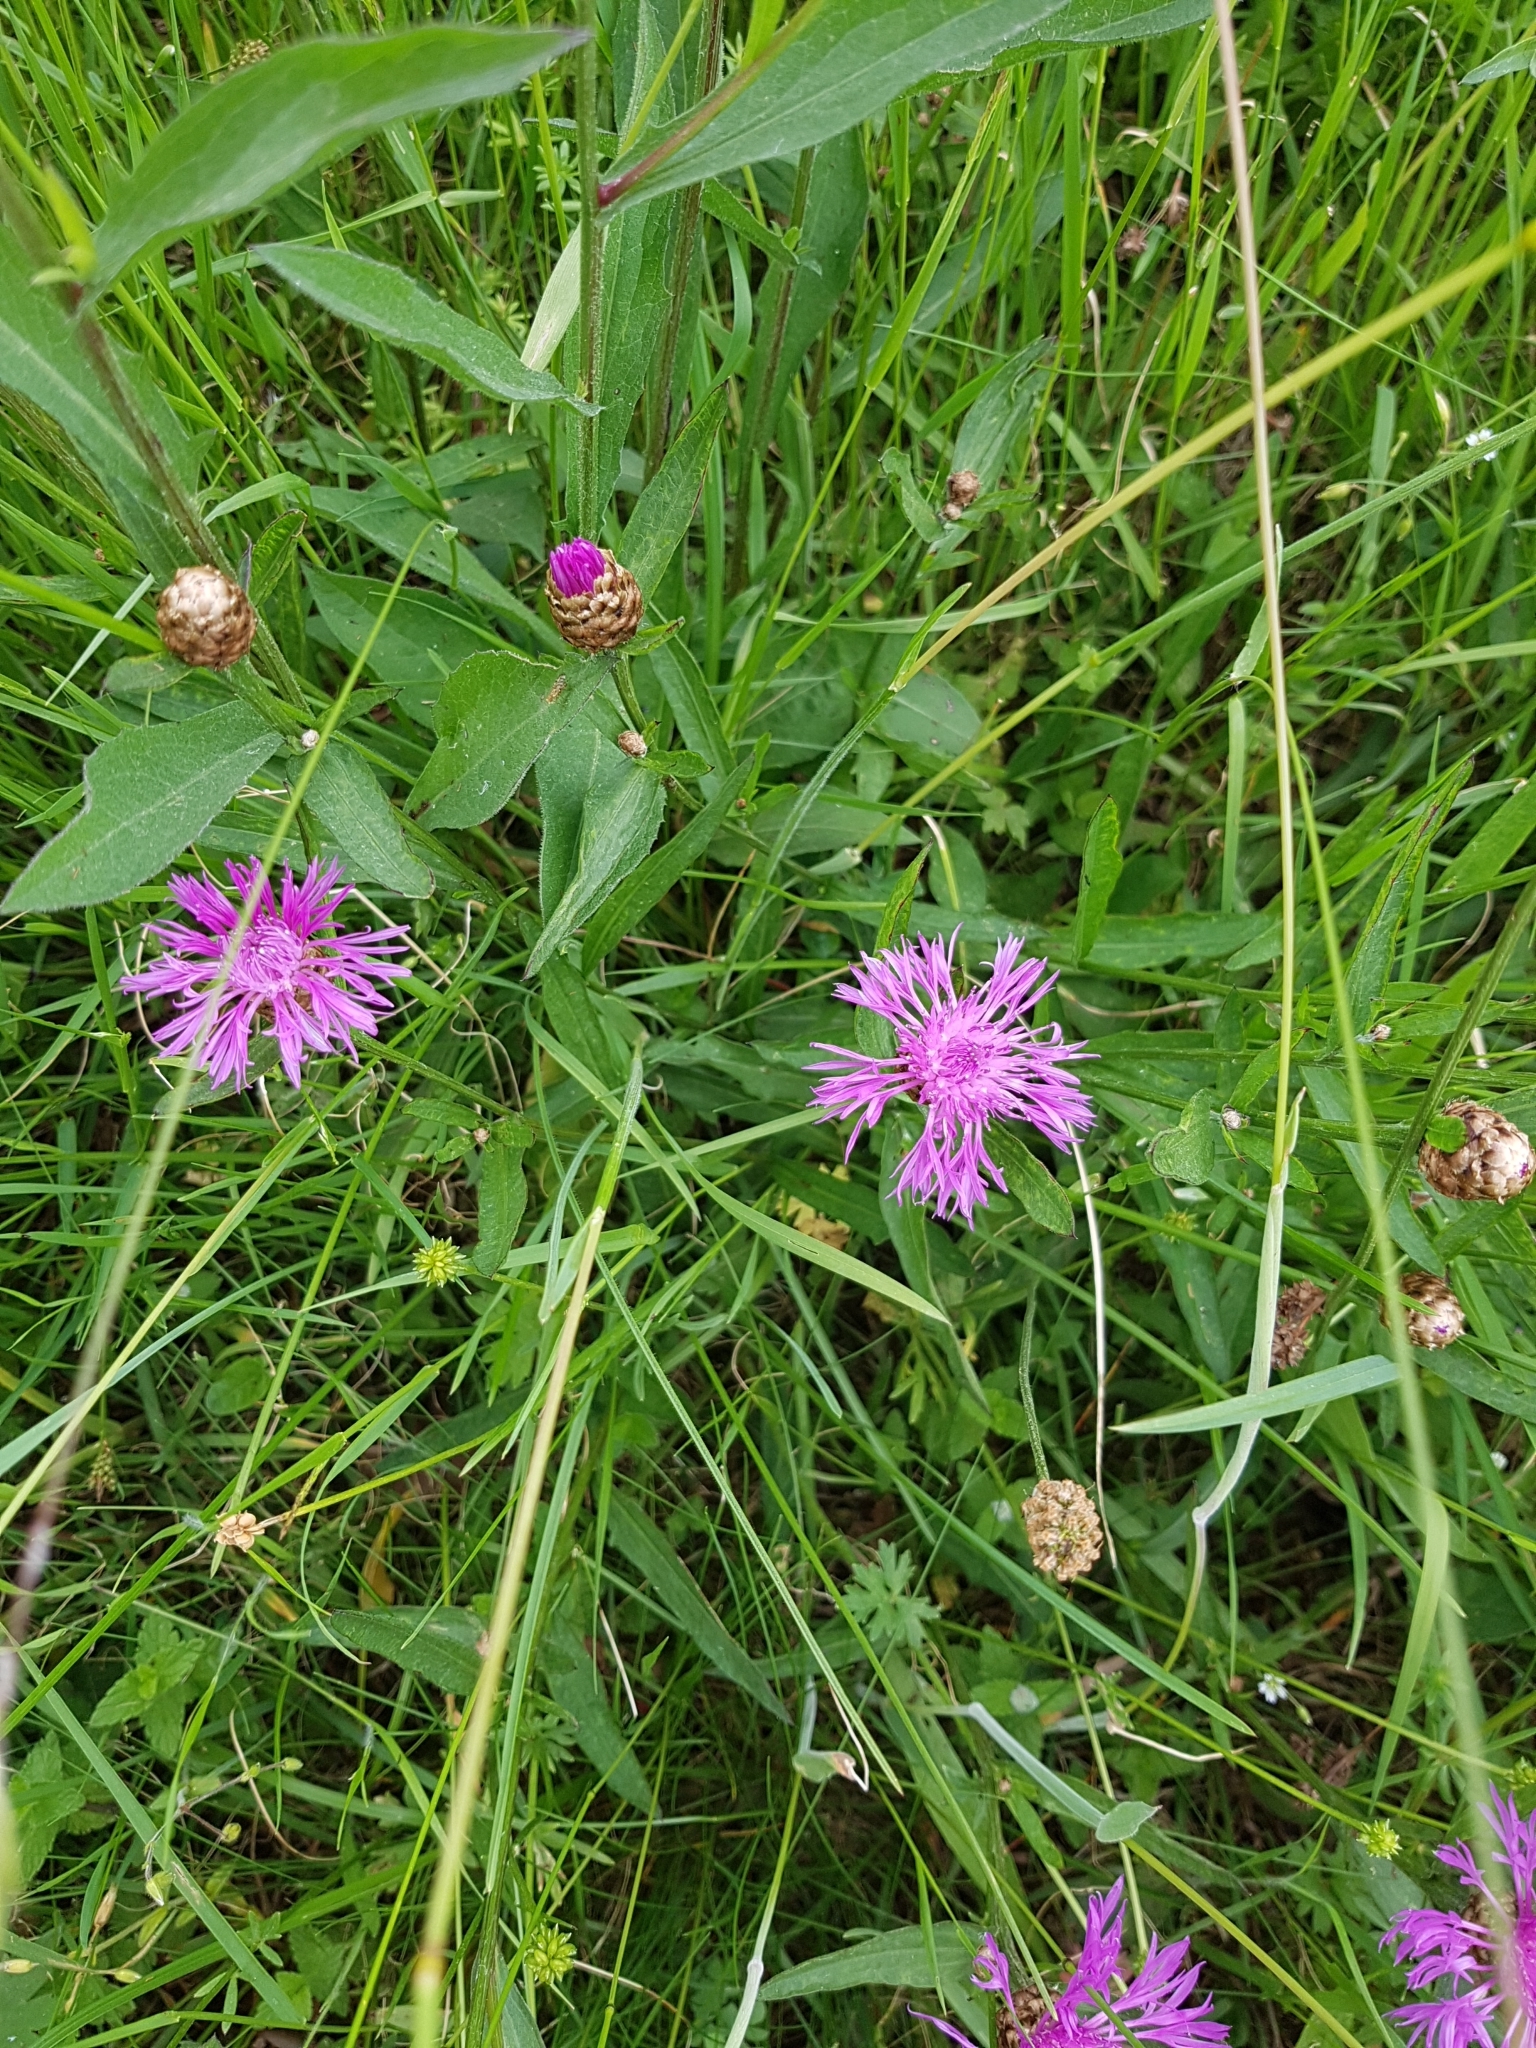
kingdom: Plantae
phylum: Tracheophyta
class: Magnoliopsida
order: Asterales
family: Asteraceae
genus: Centaurea
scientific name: Centaurea jacea
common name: Brown knapweed
